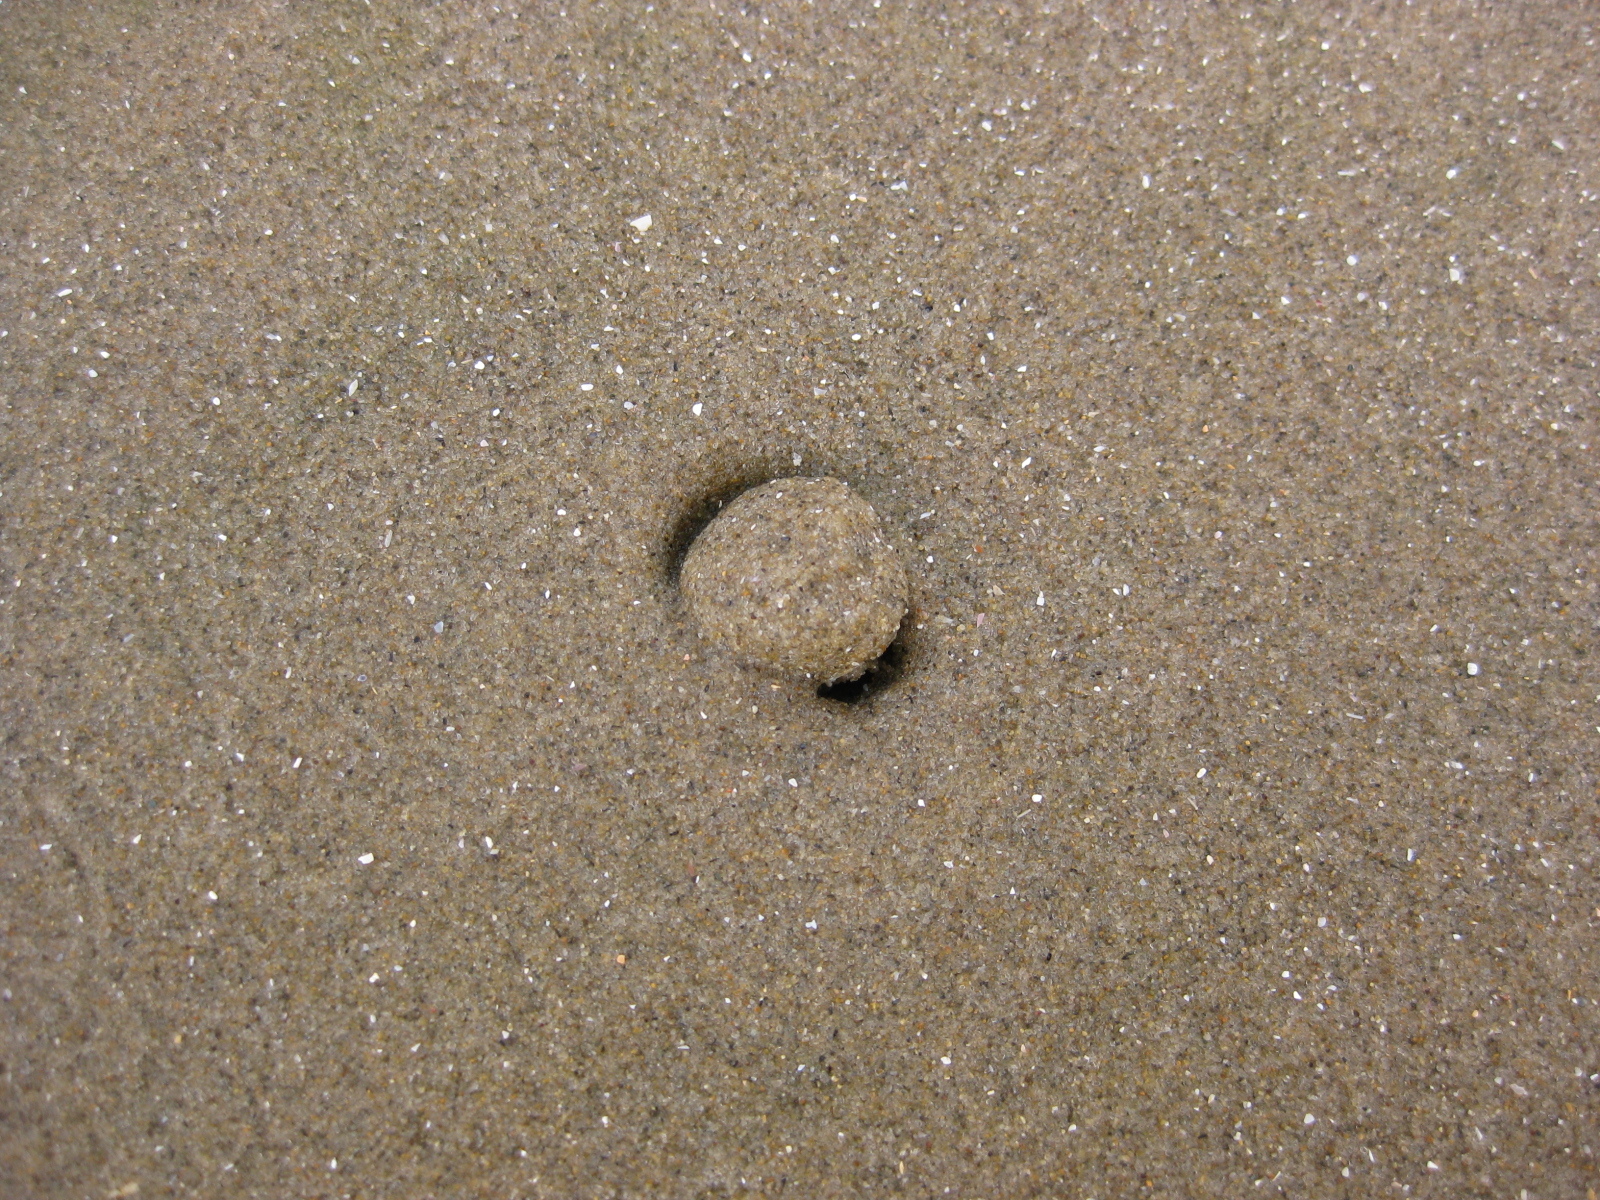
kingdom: Animalia
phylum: Mollusca
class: Gastropoda
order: Trochida
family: Trochidae
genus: Diloma
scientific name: Diloma subrostratum
